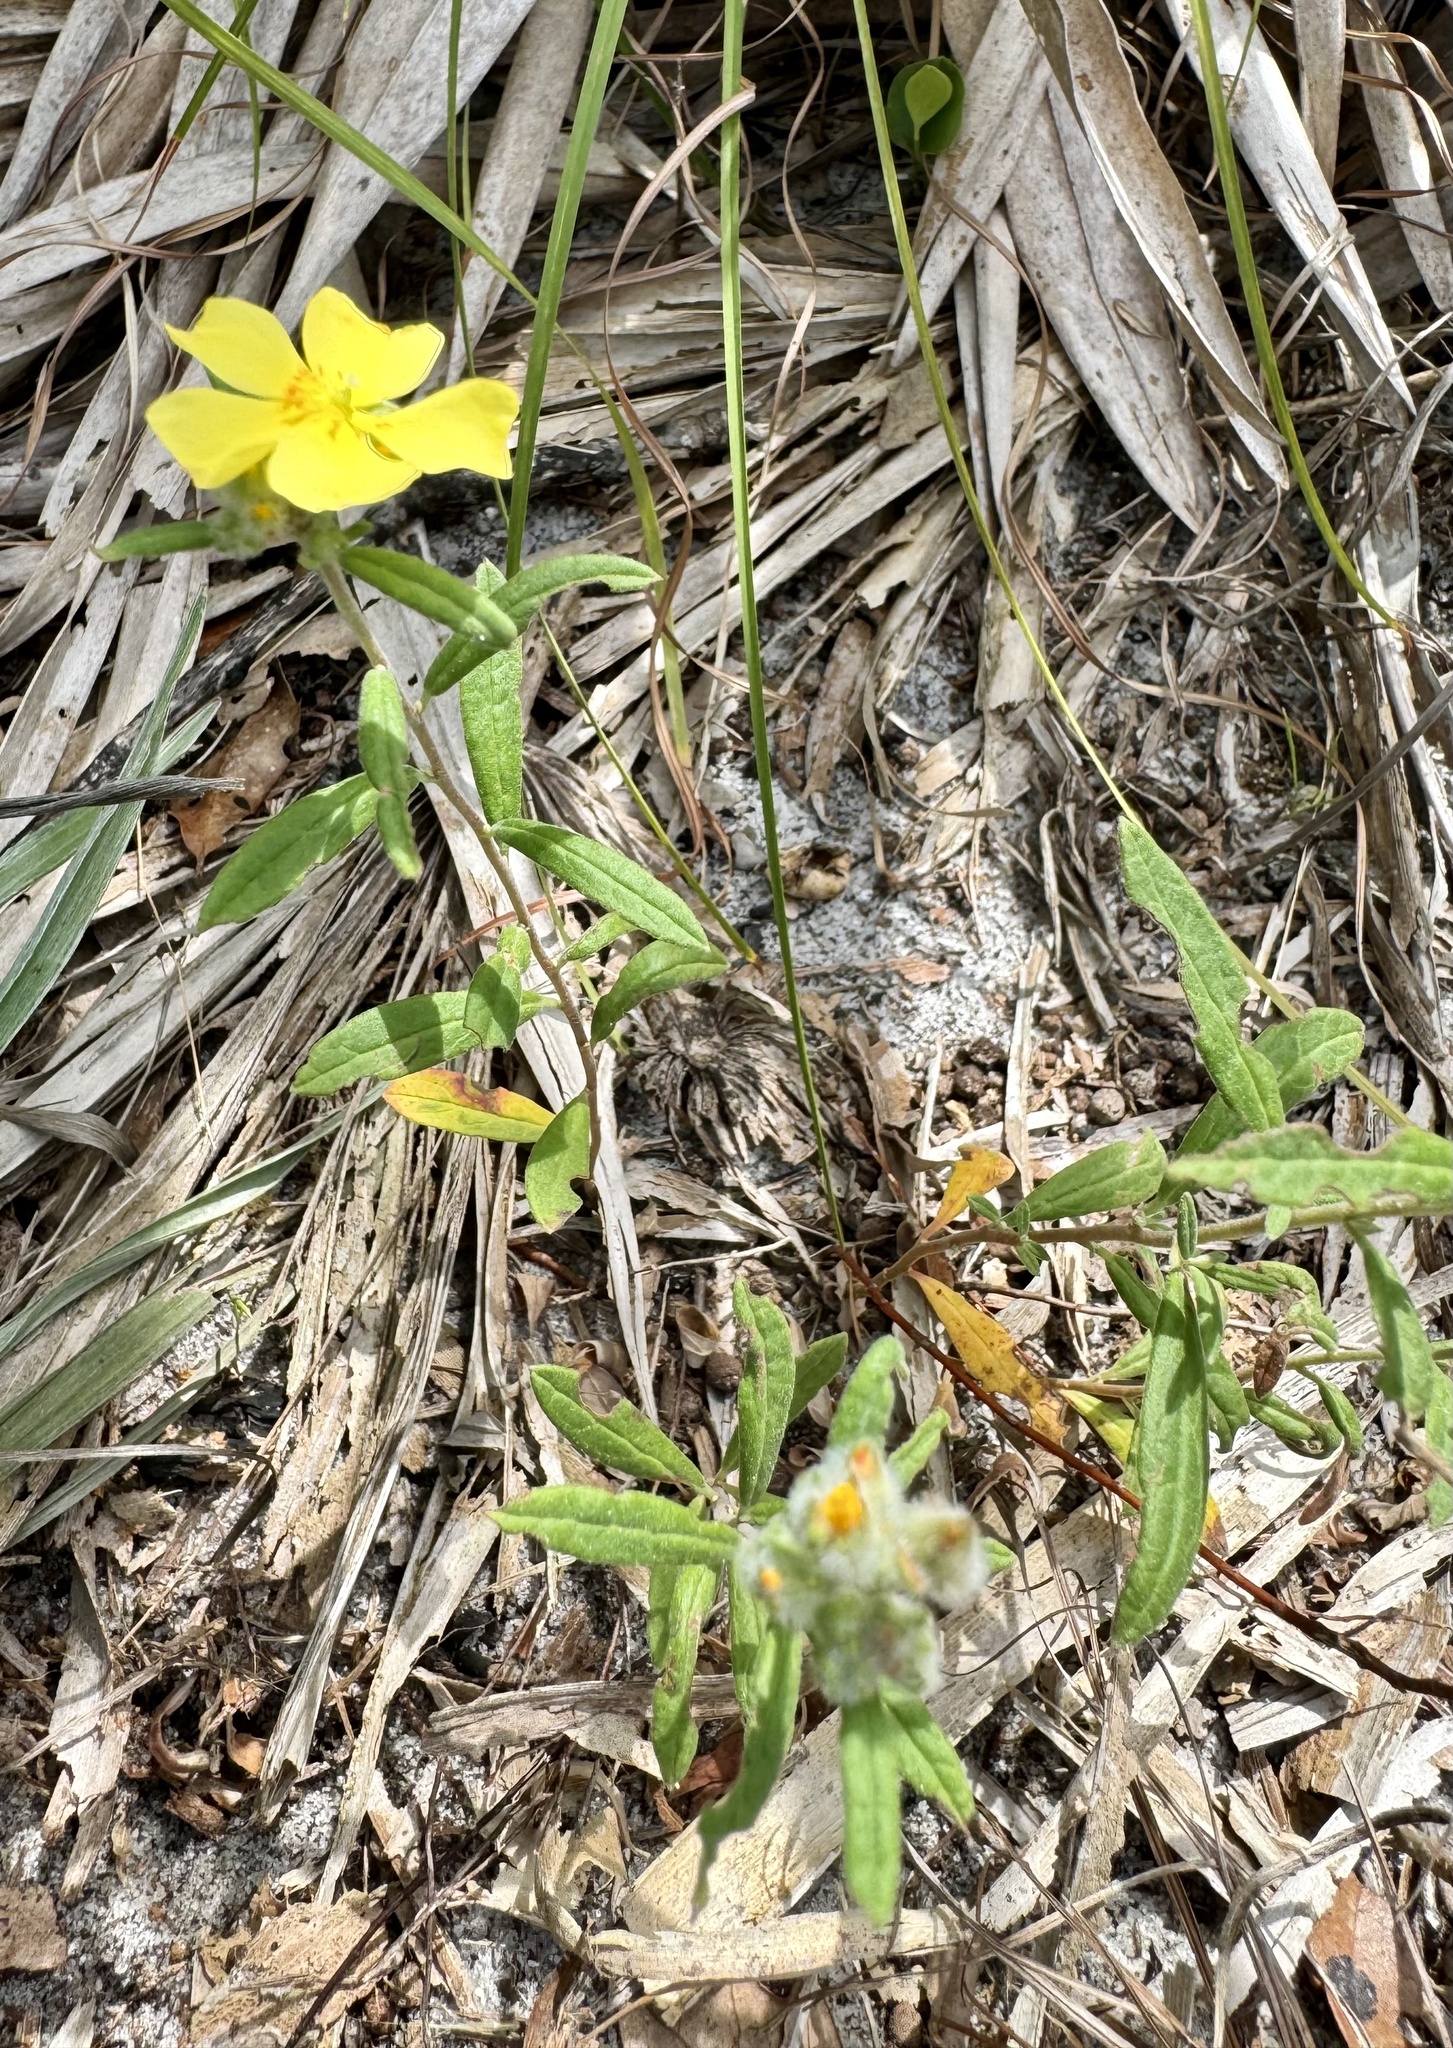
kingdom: Plantae
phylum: Tracheophyta
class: Magnoliopsida
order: Malvales
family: Cistaceae
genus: Crocanthemum
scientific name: Crocanthemum corymbosum
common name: Pinebarren sun-rose
